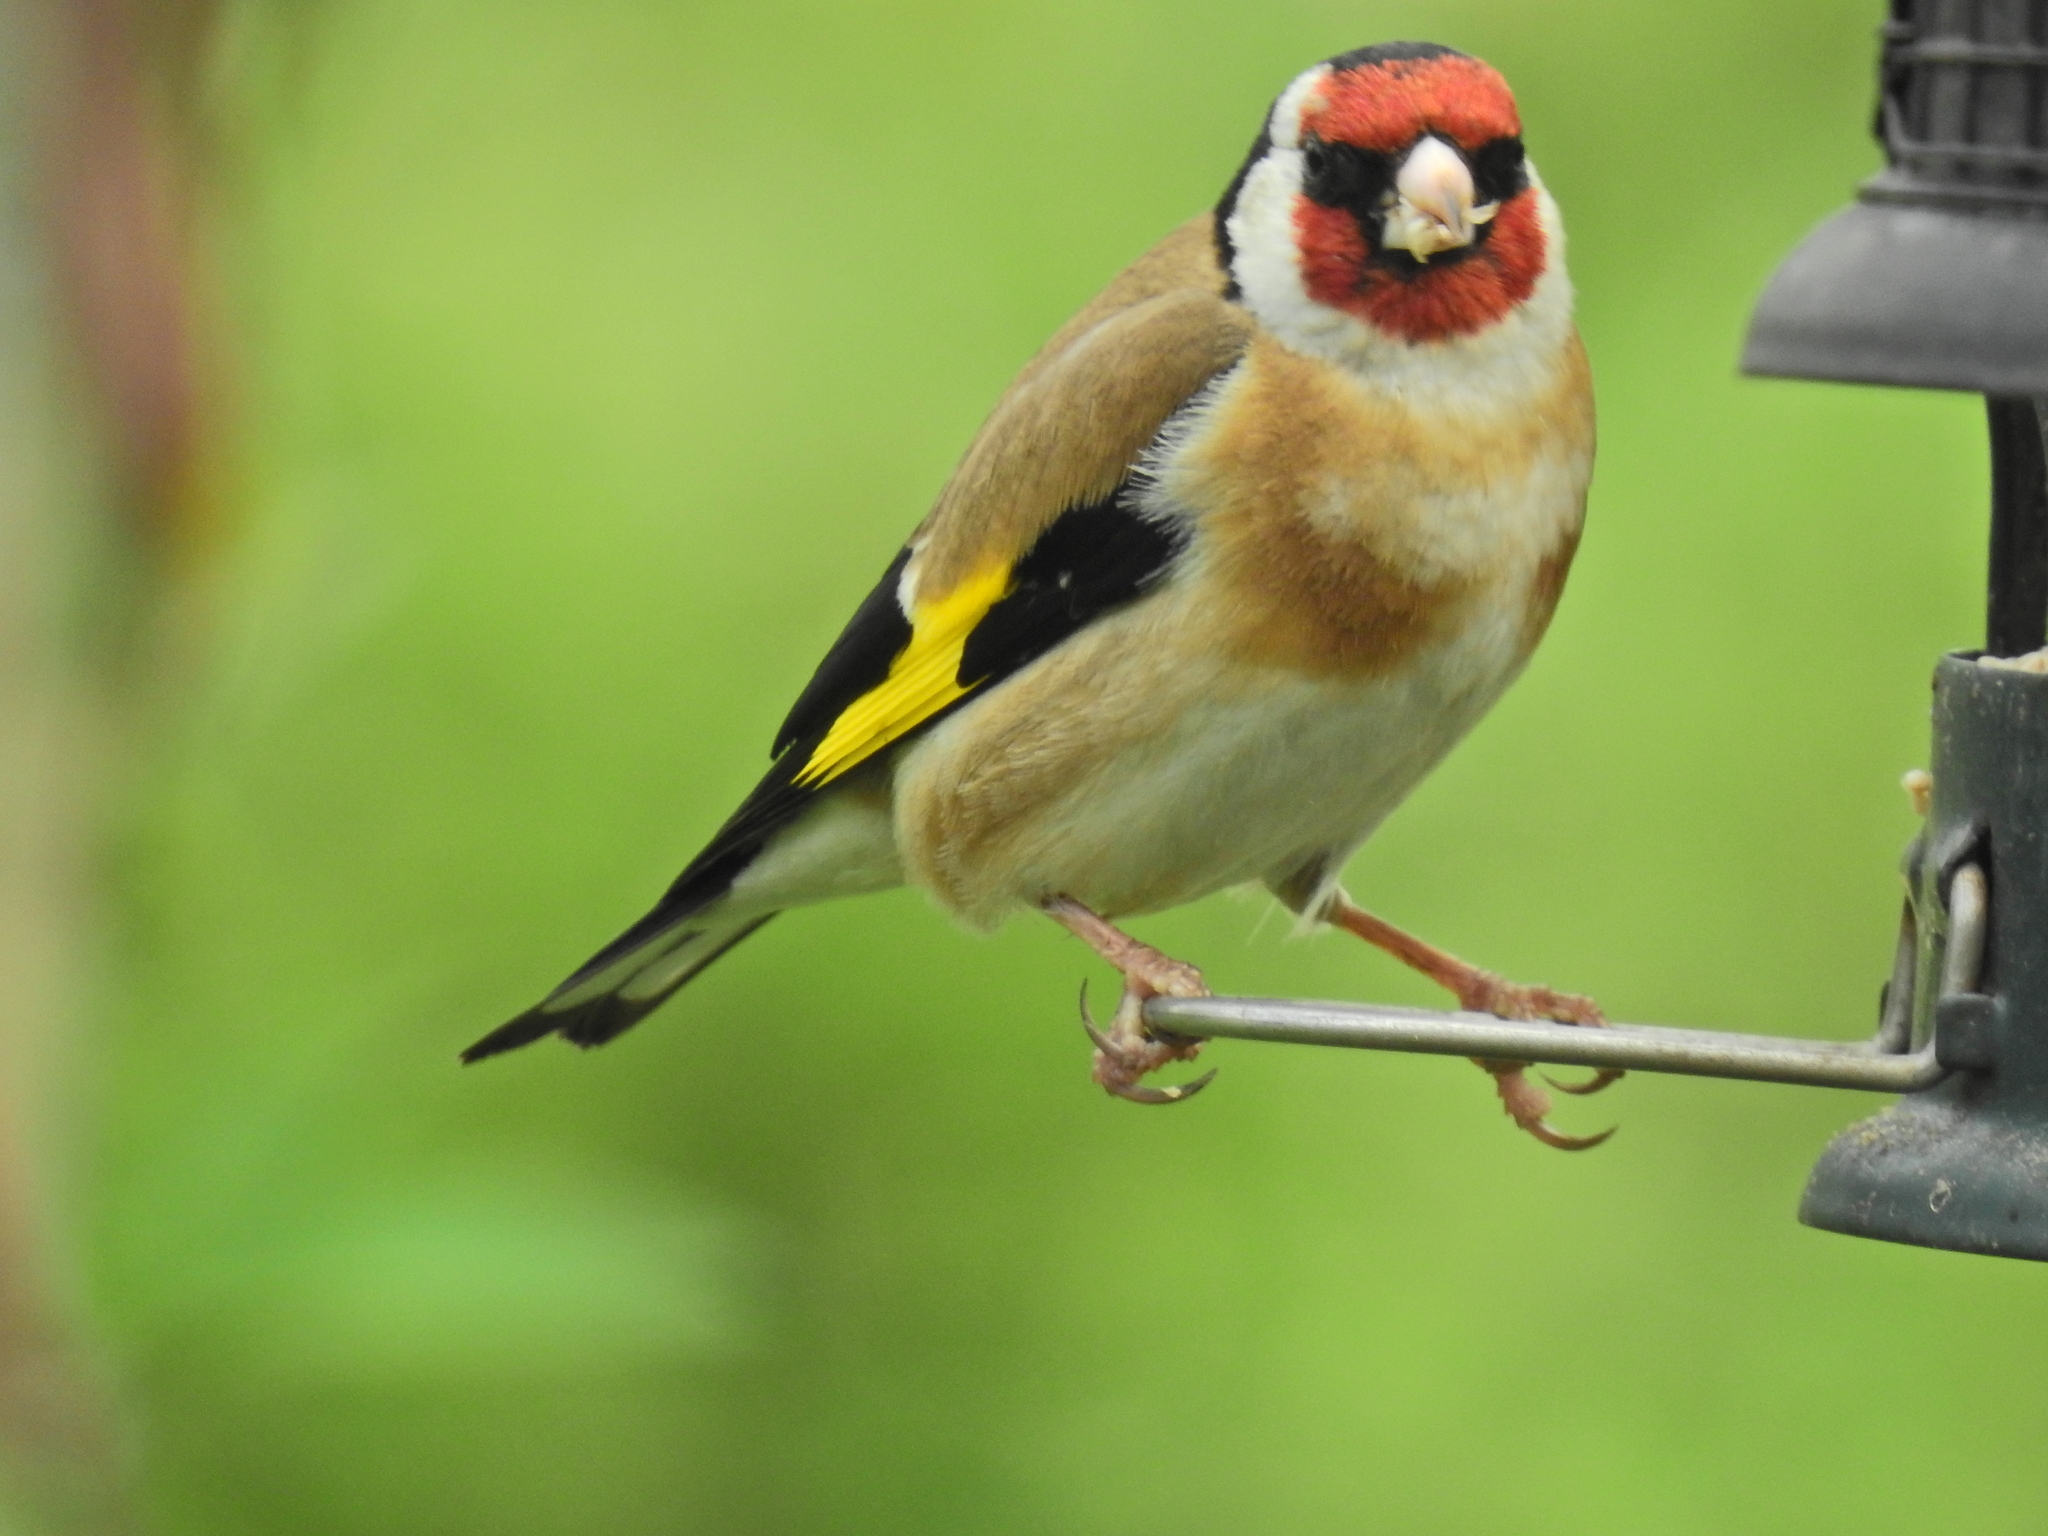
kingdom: Animalia
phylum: Chordata
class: Aves
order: Passeriformes
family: Fringillidae
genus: Carduelis
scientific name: Carduelis carduelis
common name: European goldfinch
